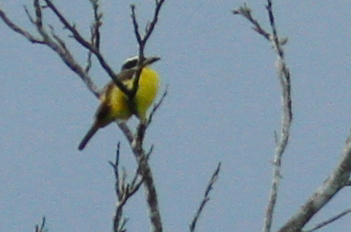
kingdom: Animalia
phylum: Chordata
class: Aves
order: Passeriformes
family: Tyrannidae
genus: Megarynchus
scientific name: Megarynchus pitangua
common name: Boat-billed flycatcher
